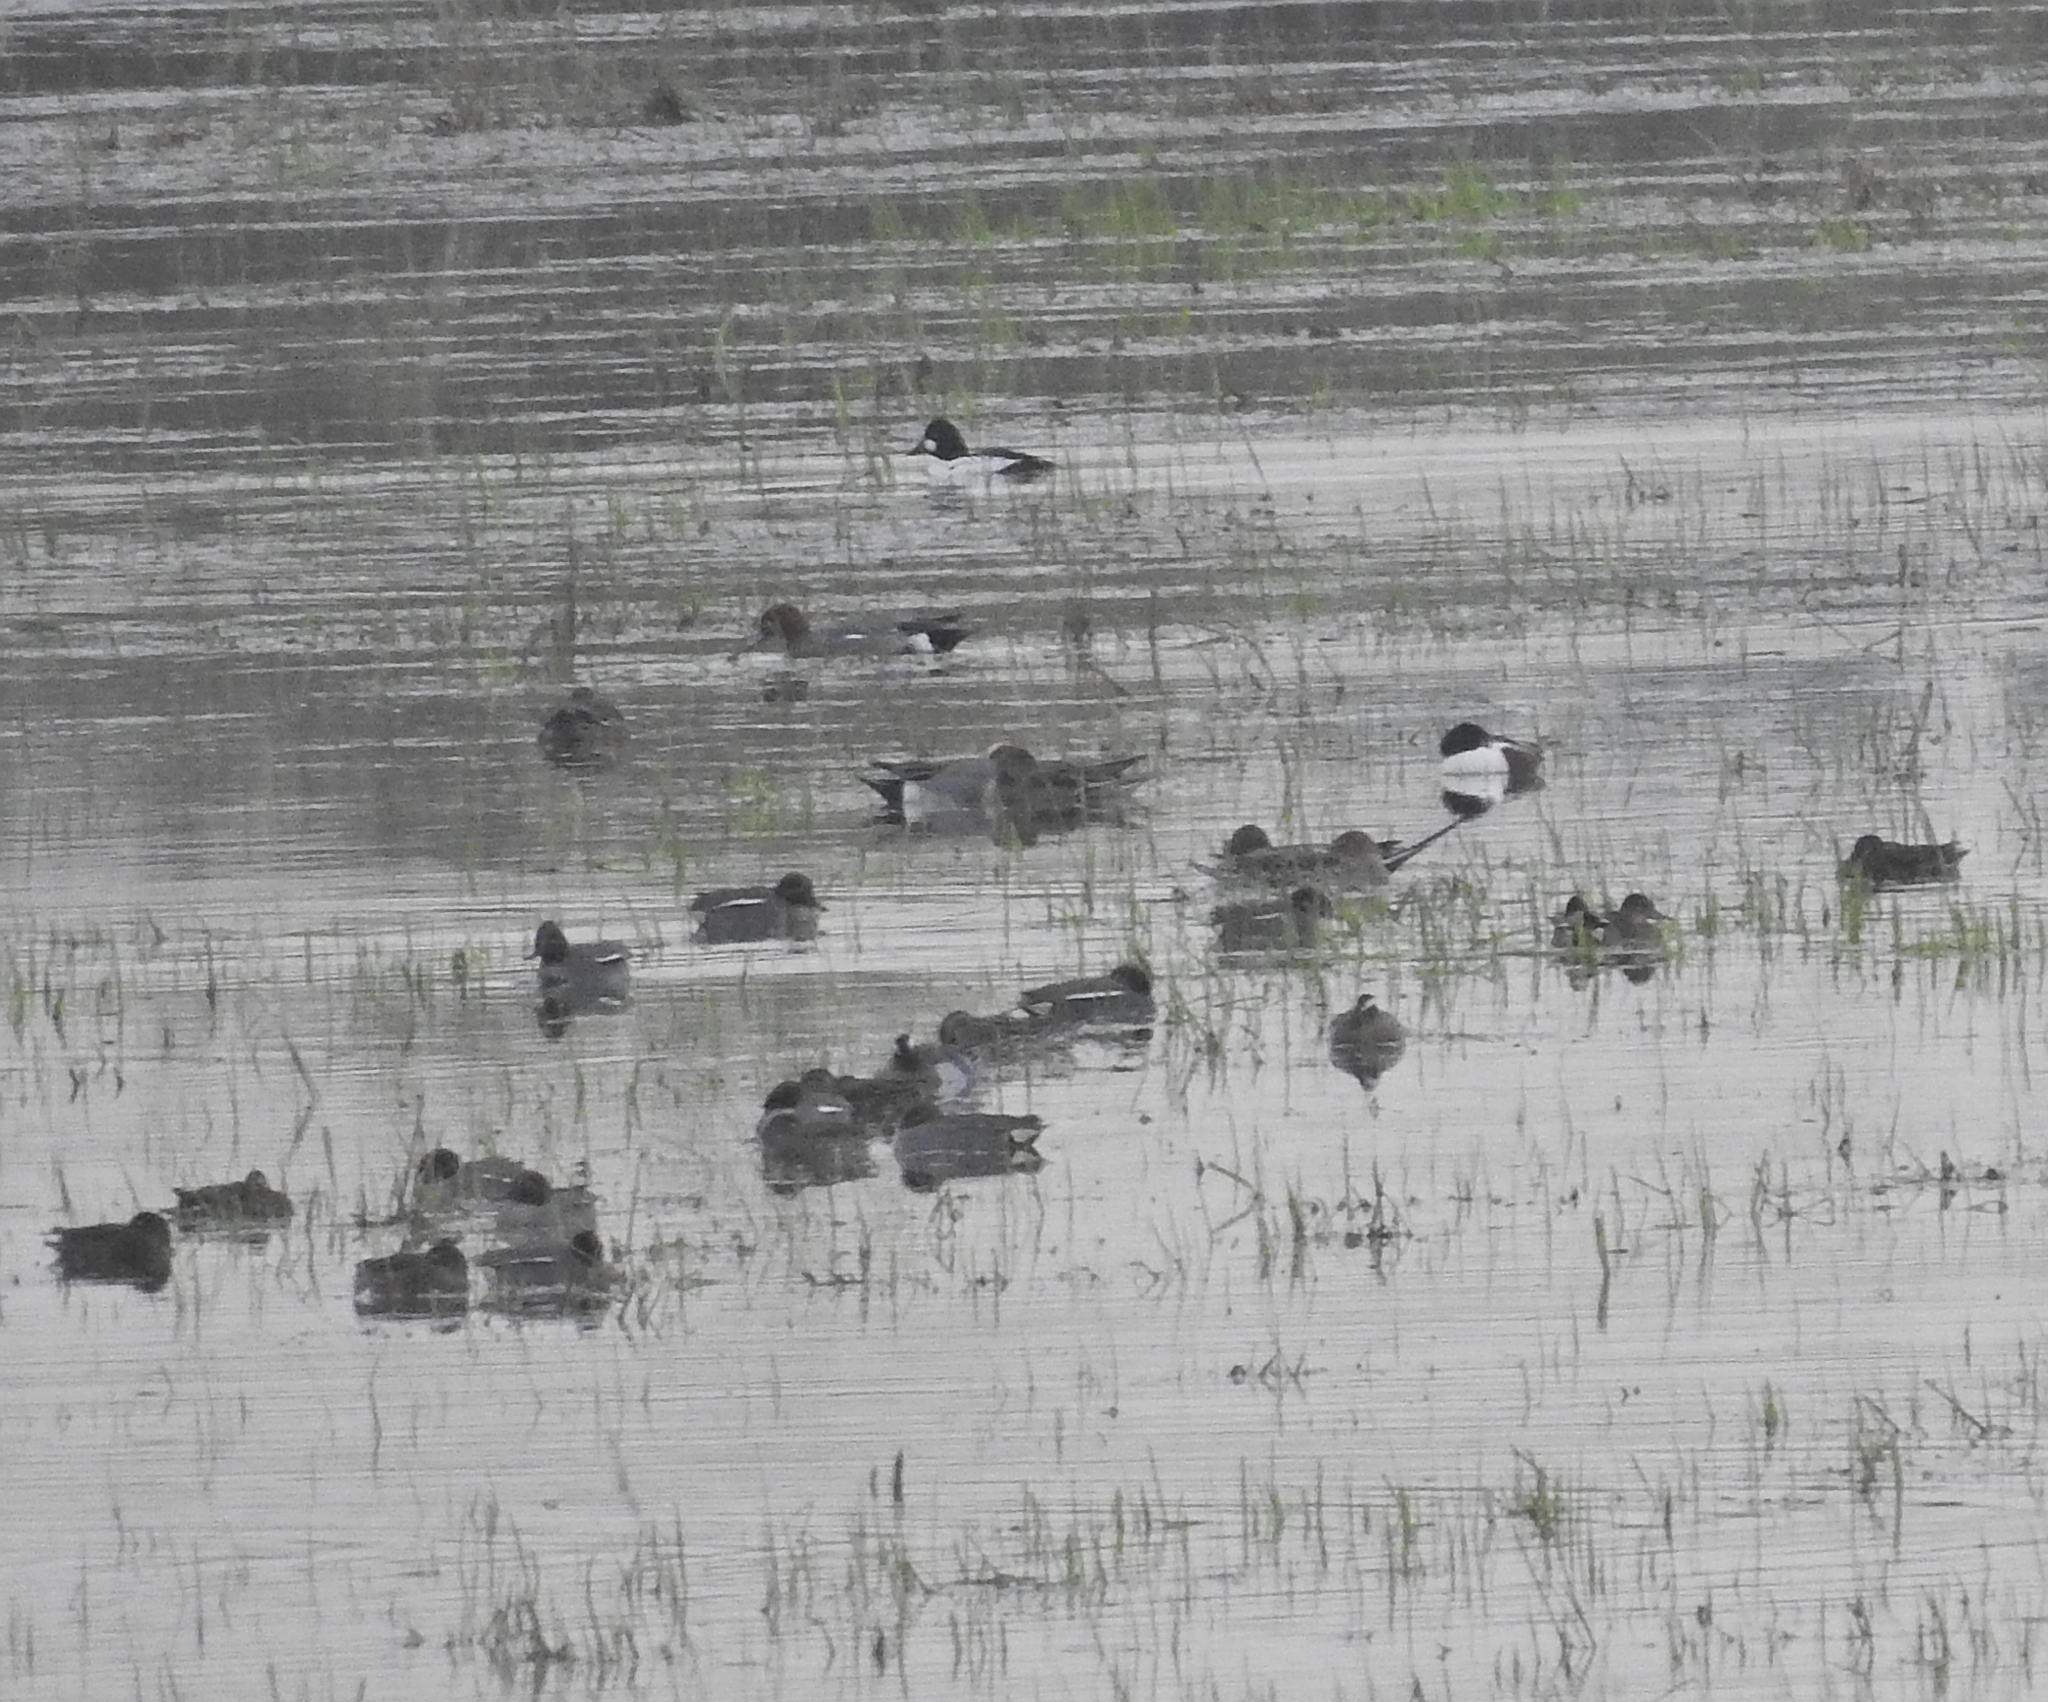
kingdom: Animalia
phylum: Chordata
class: Aves
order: Anseriformes
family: Anatidae
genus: Bucephala
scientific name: Bucephala clangula
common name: Common goldeneye
